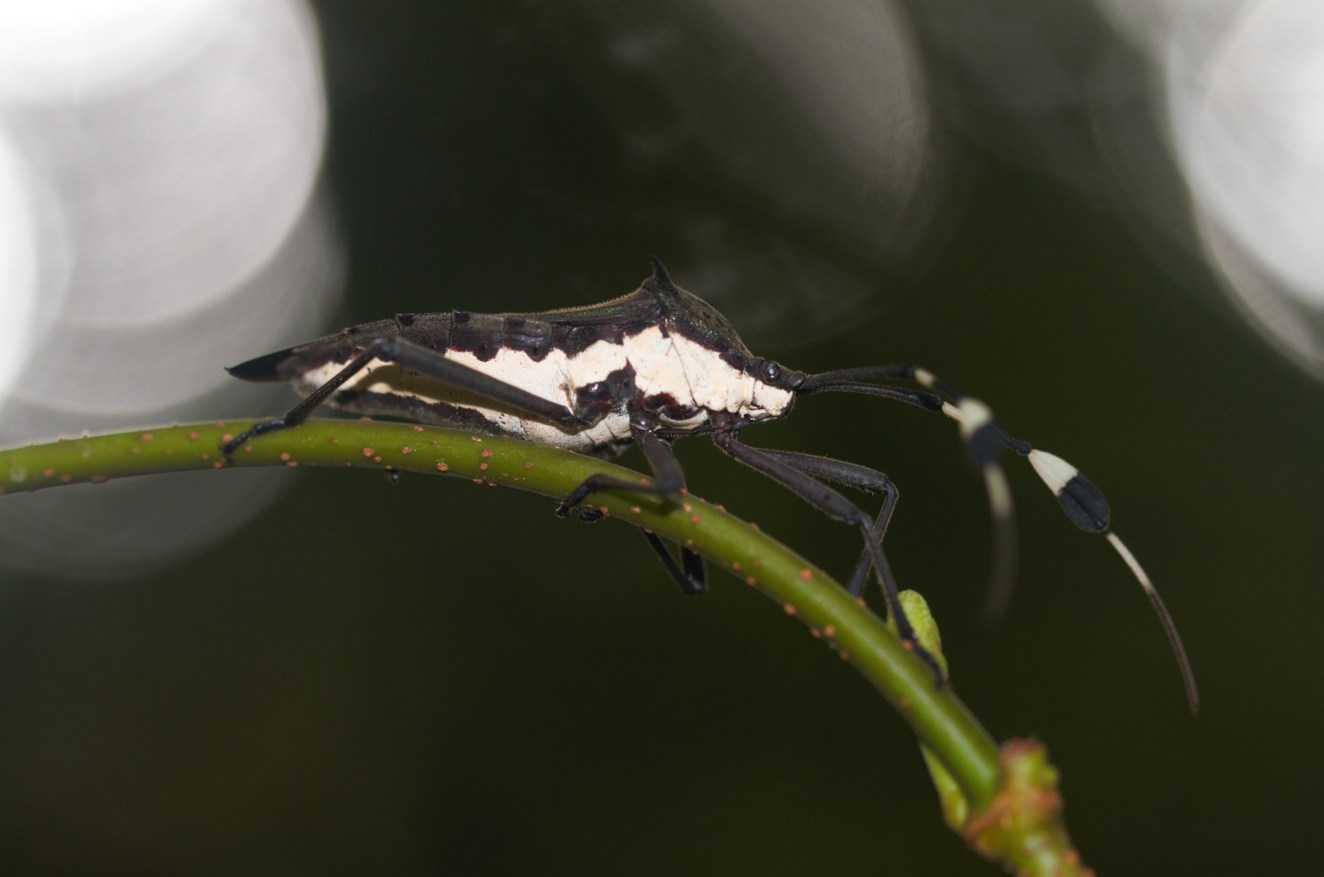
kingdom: Animalia
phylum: Arthropoda
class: Insecta
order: Hemiptera
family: Coreidae
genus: Molchina
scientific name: Molchina hopei
